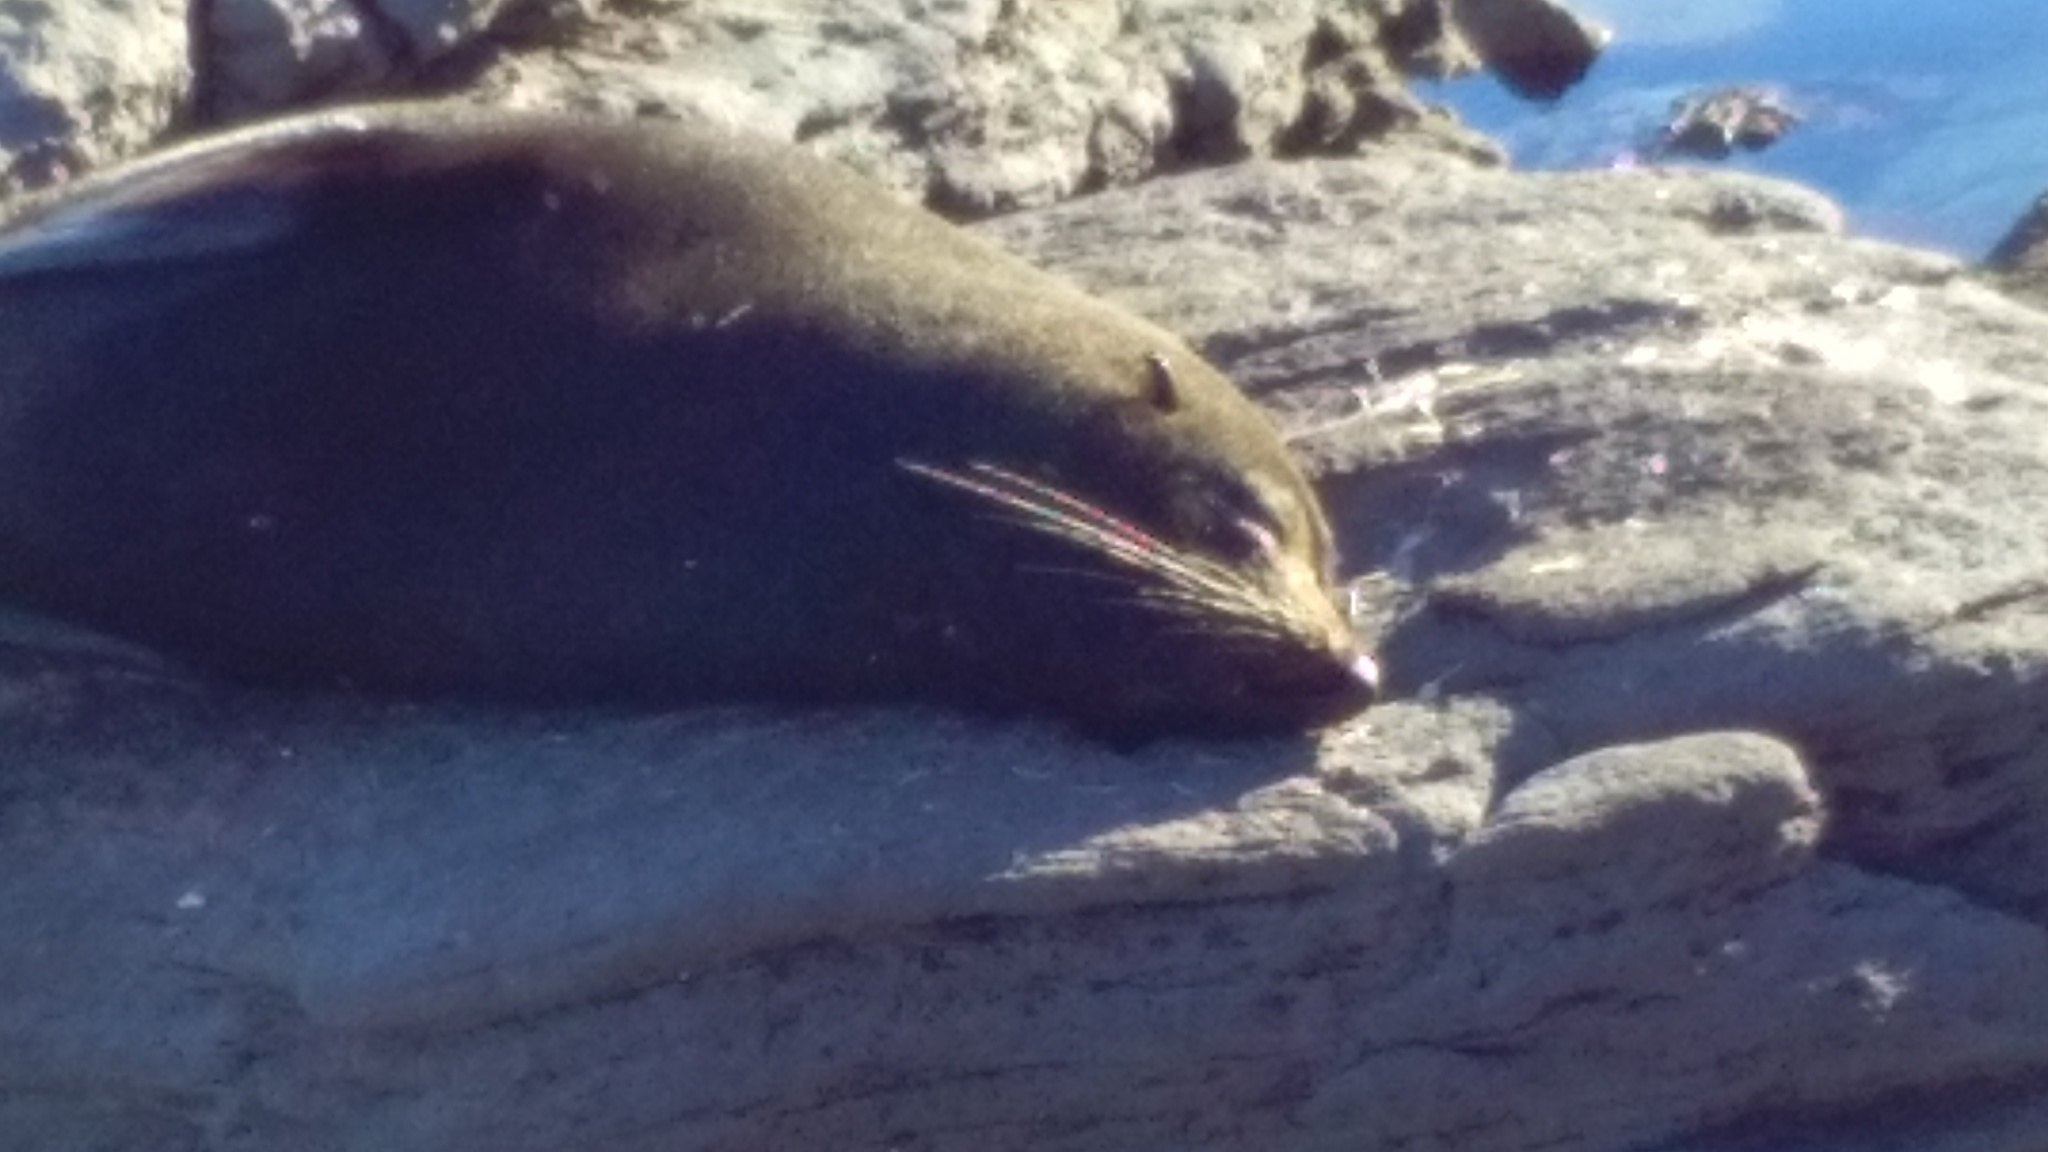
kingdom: Animalia
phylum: Chordata
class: Mammalia
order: Carnivora
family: Otariidae
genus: Arctocephalus
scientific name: Arctocephalus forsteri
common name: New zealand fur seal
